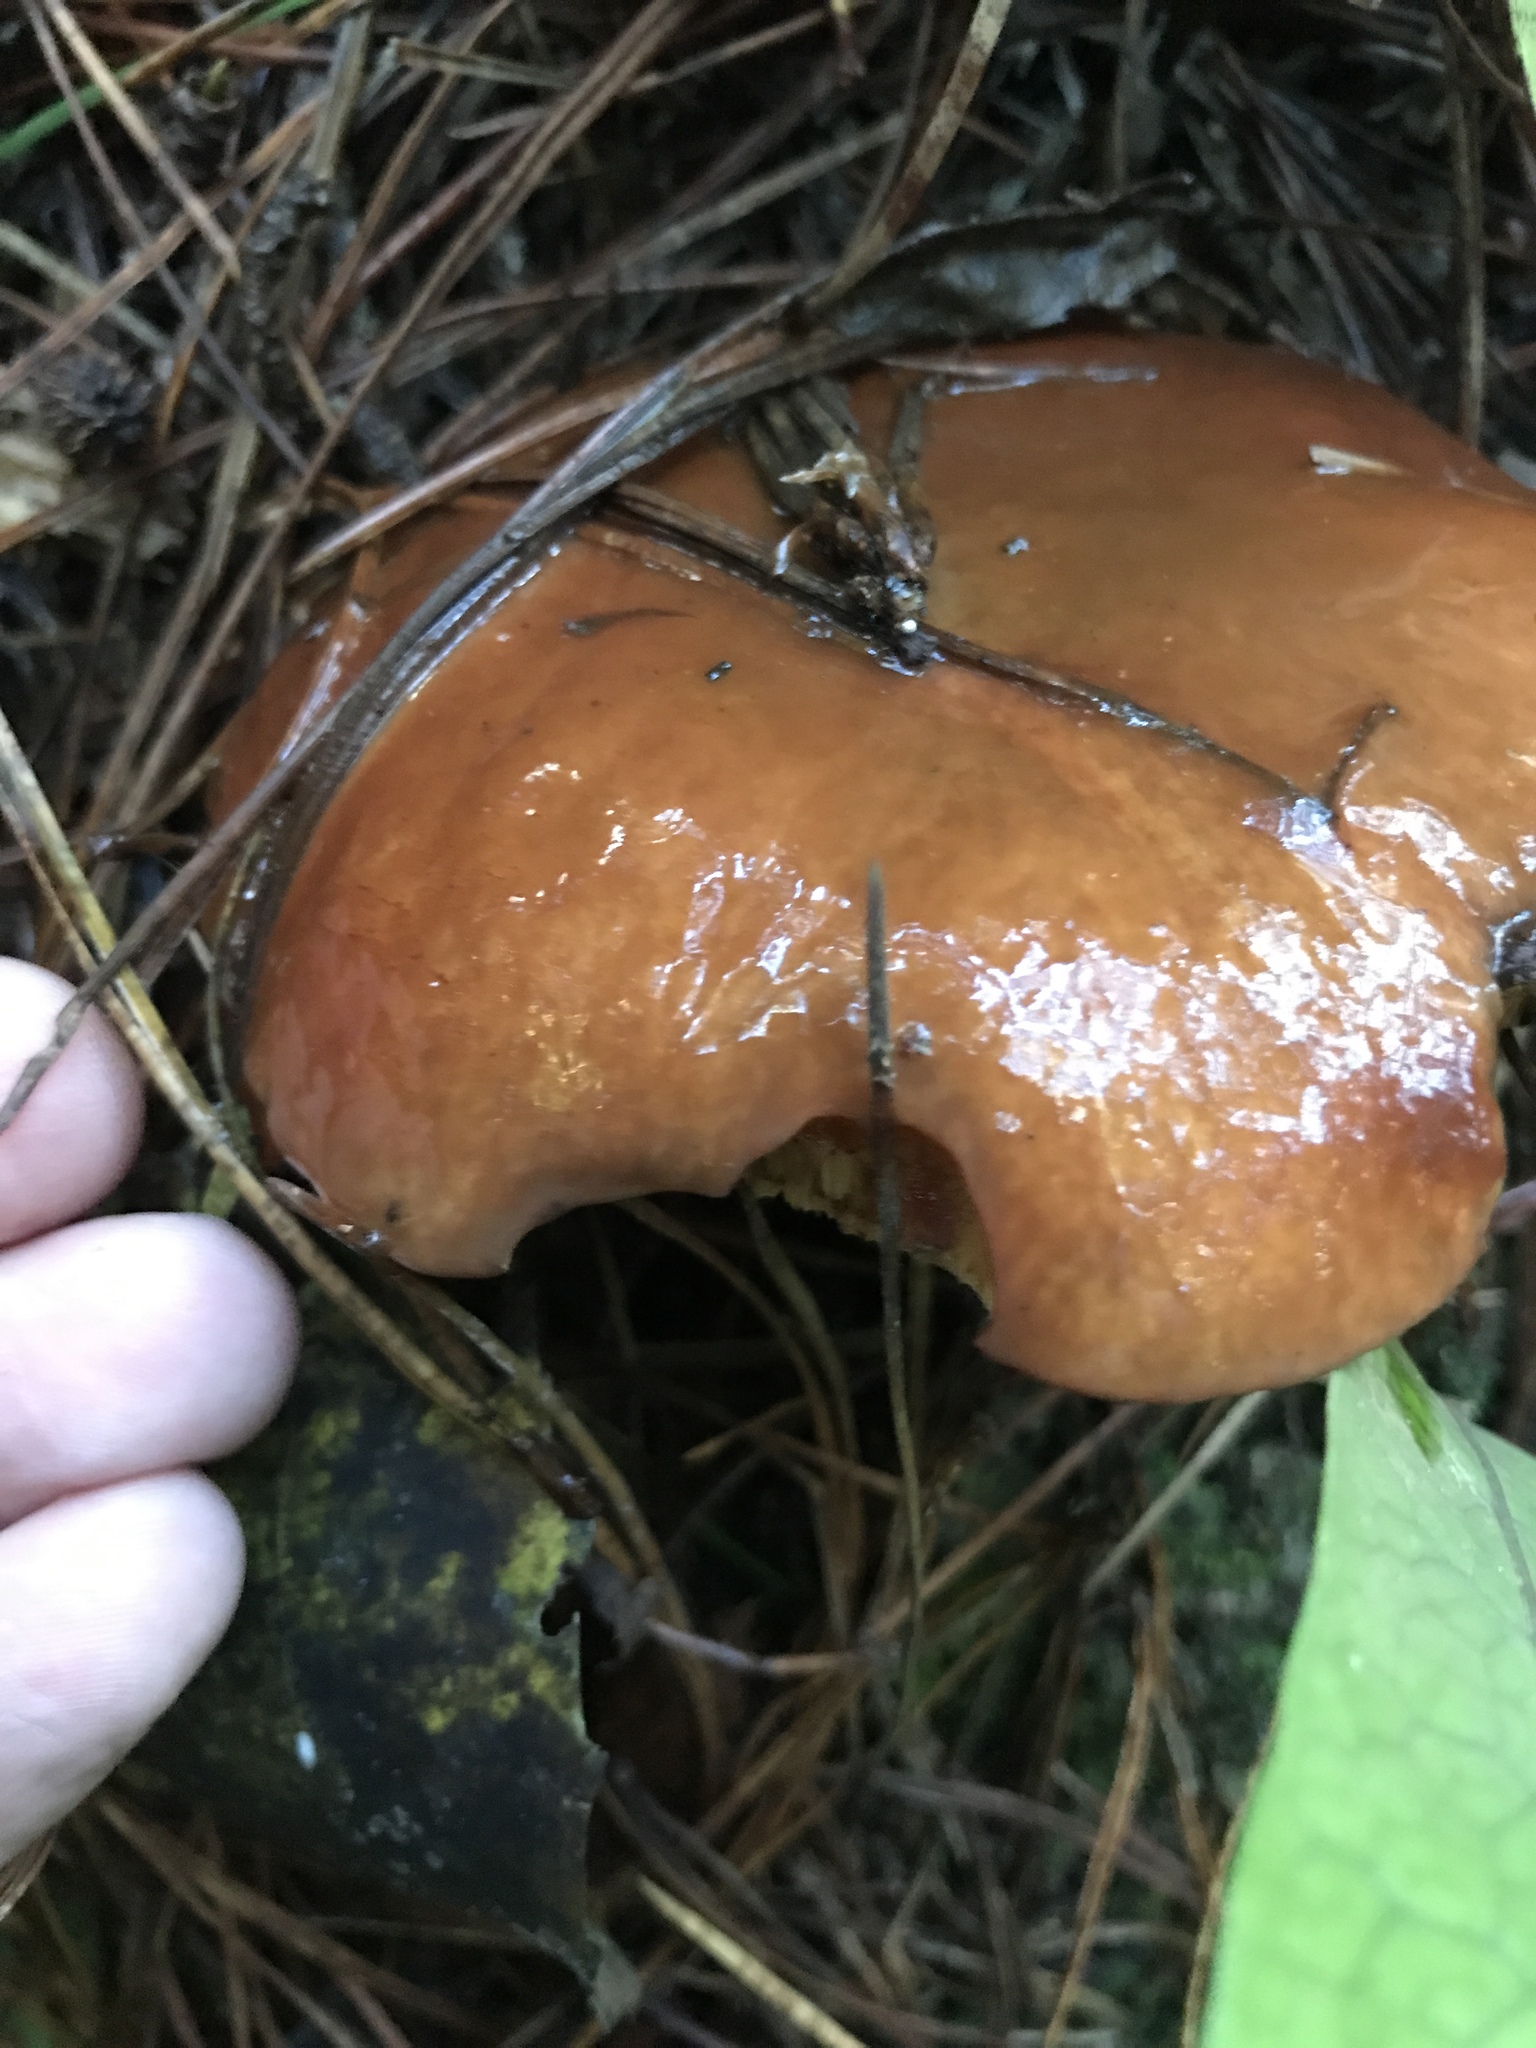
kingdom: Fungi
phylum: Basidiomycota
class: Agaricomycetes
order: Boletales
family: Suillaceae
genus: Suillus
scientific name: Suillus luteus
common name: Slippery jack
